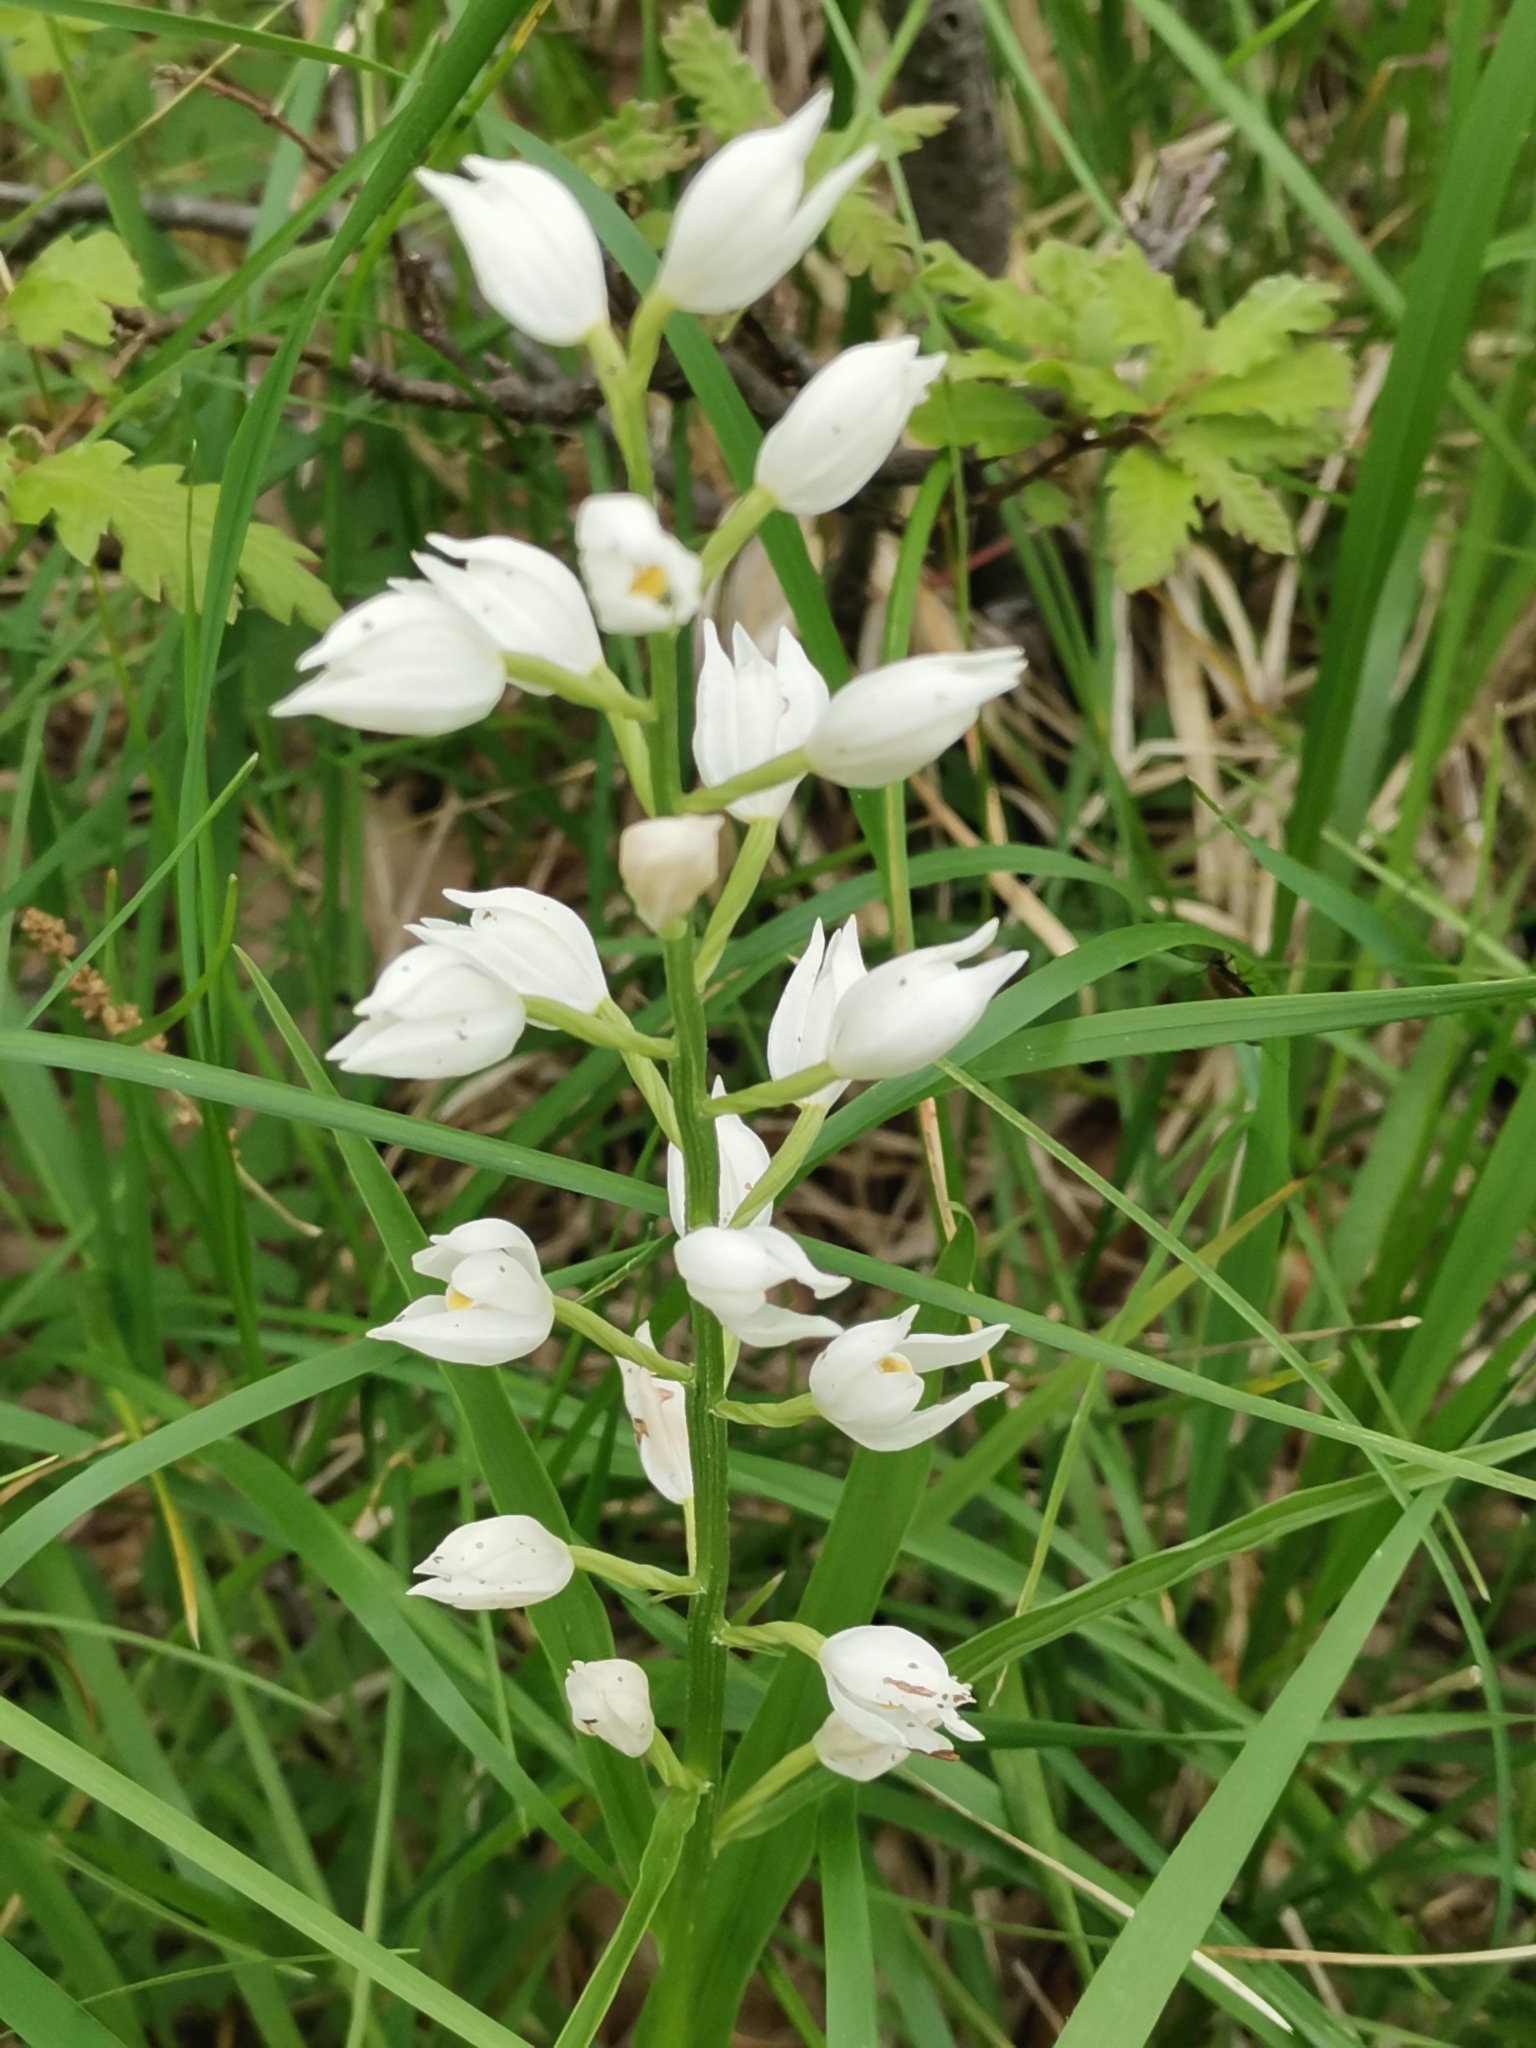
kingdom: Plantae
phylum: Tracheophyta
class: Liliopsida
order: Asparagales
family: Orchidaceae
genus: Cephalanthera
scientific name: Cephalanthera longifolia
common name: Narrow-leaved helleborine
